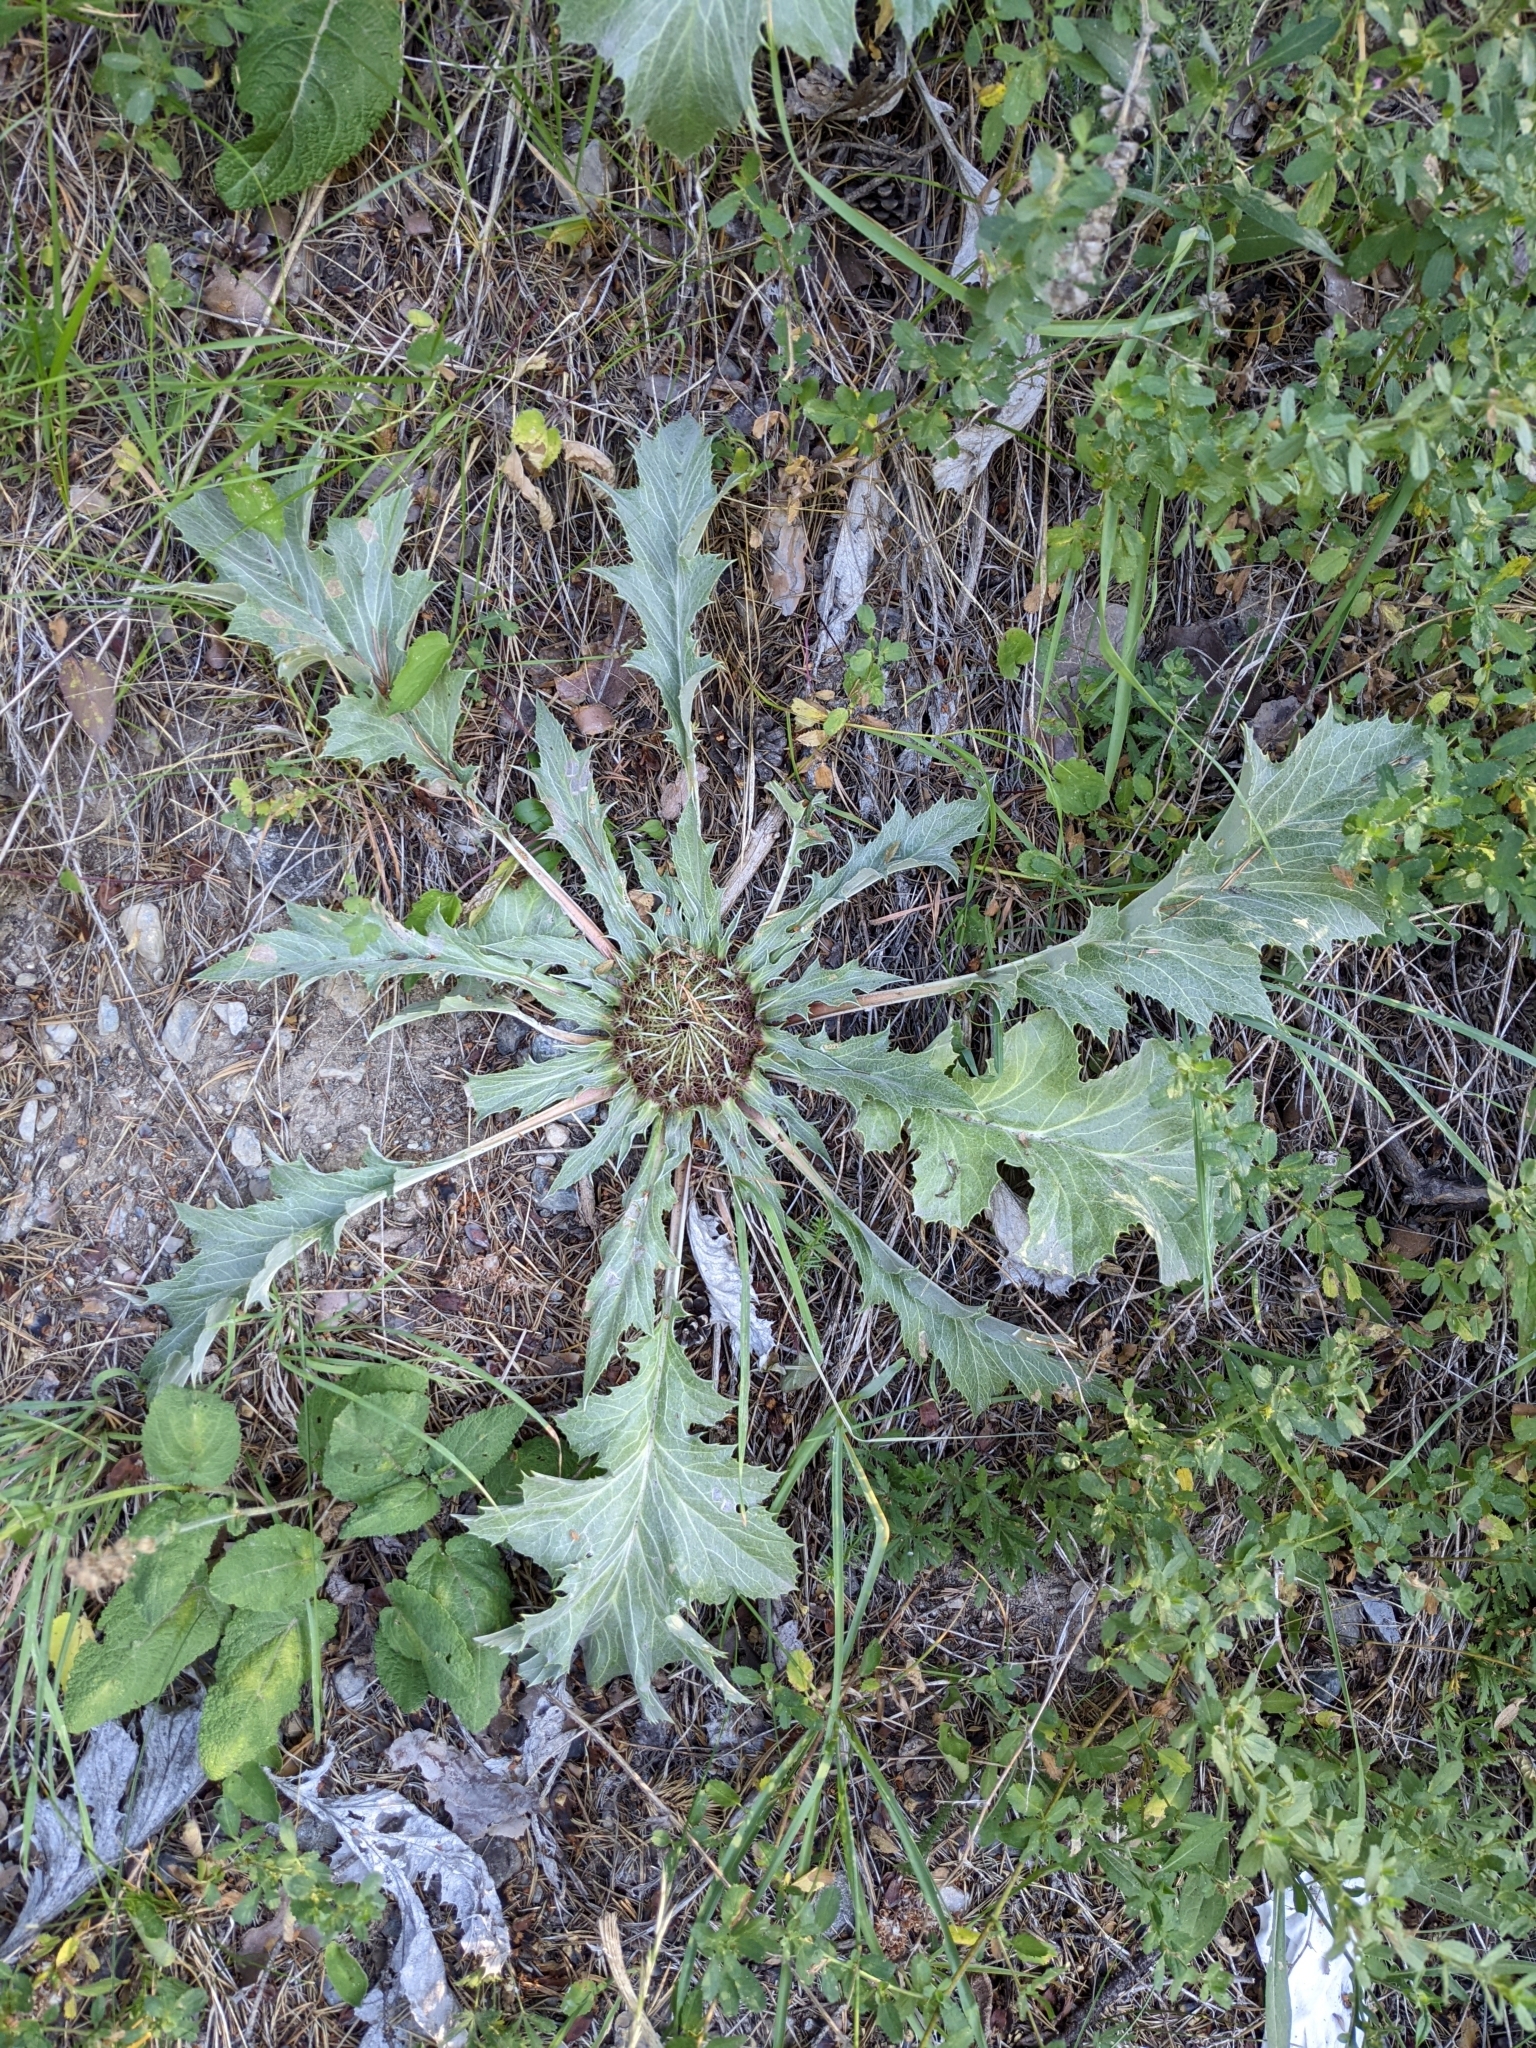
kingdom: Plantae
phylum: Tracheophyta
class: Magnoliopsida
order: Asterales
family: Asteraceae
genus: Carlina
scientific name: Carlina acanthifolia
